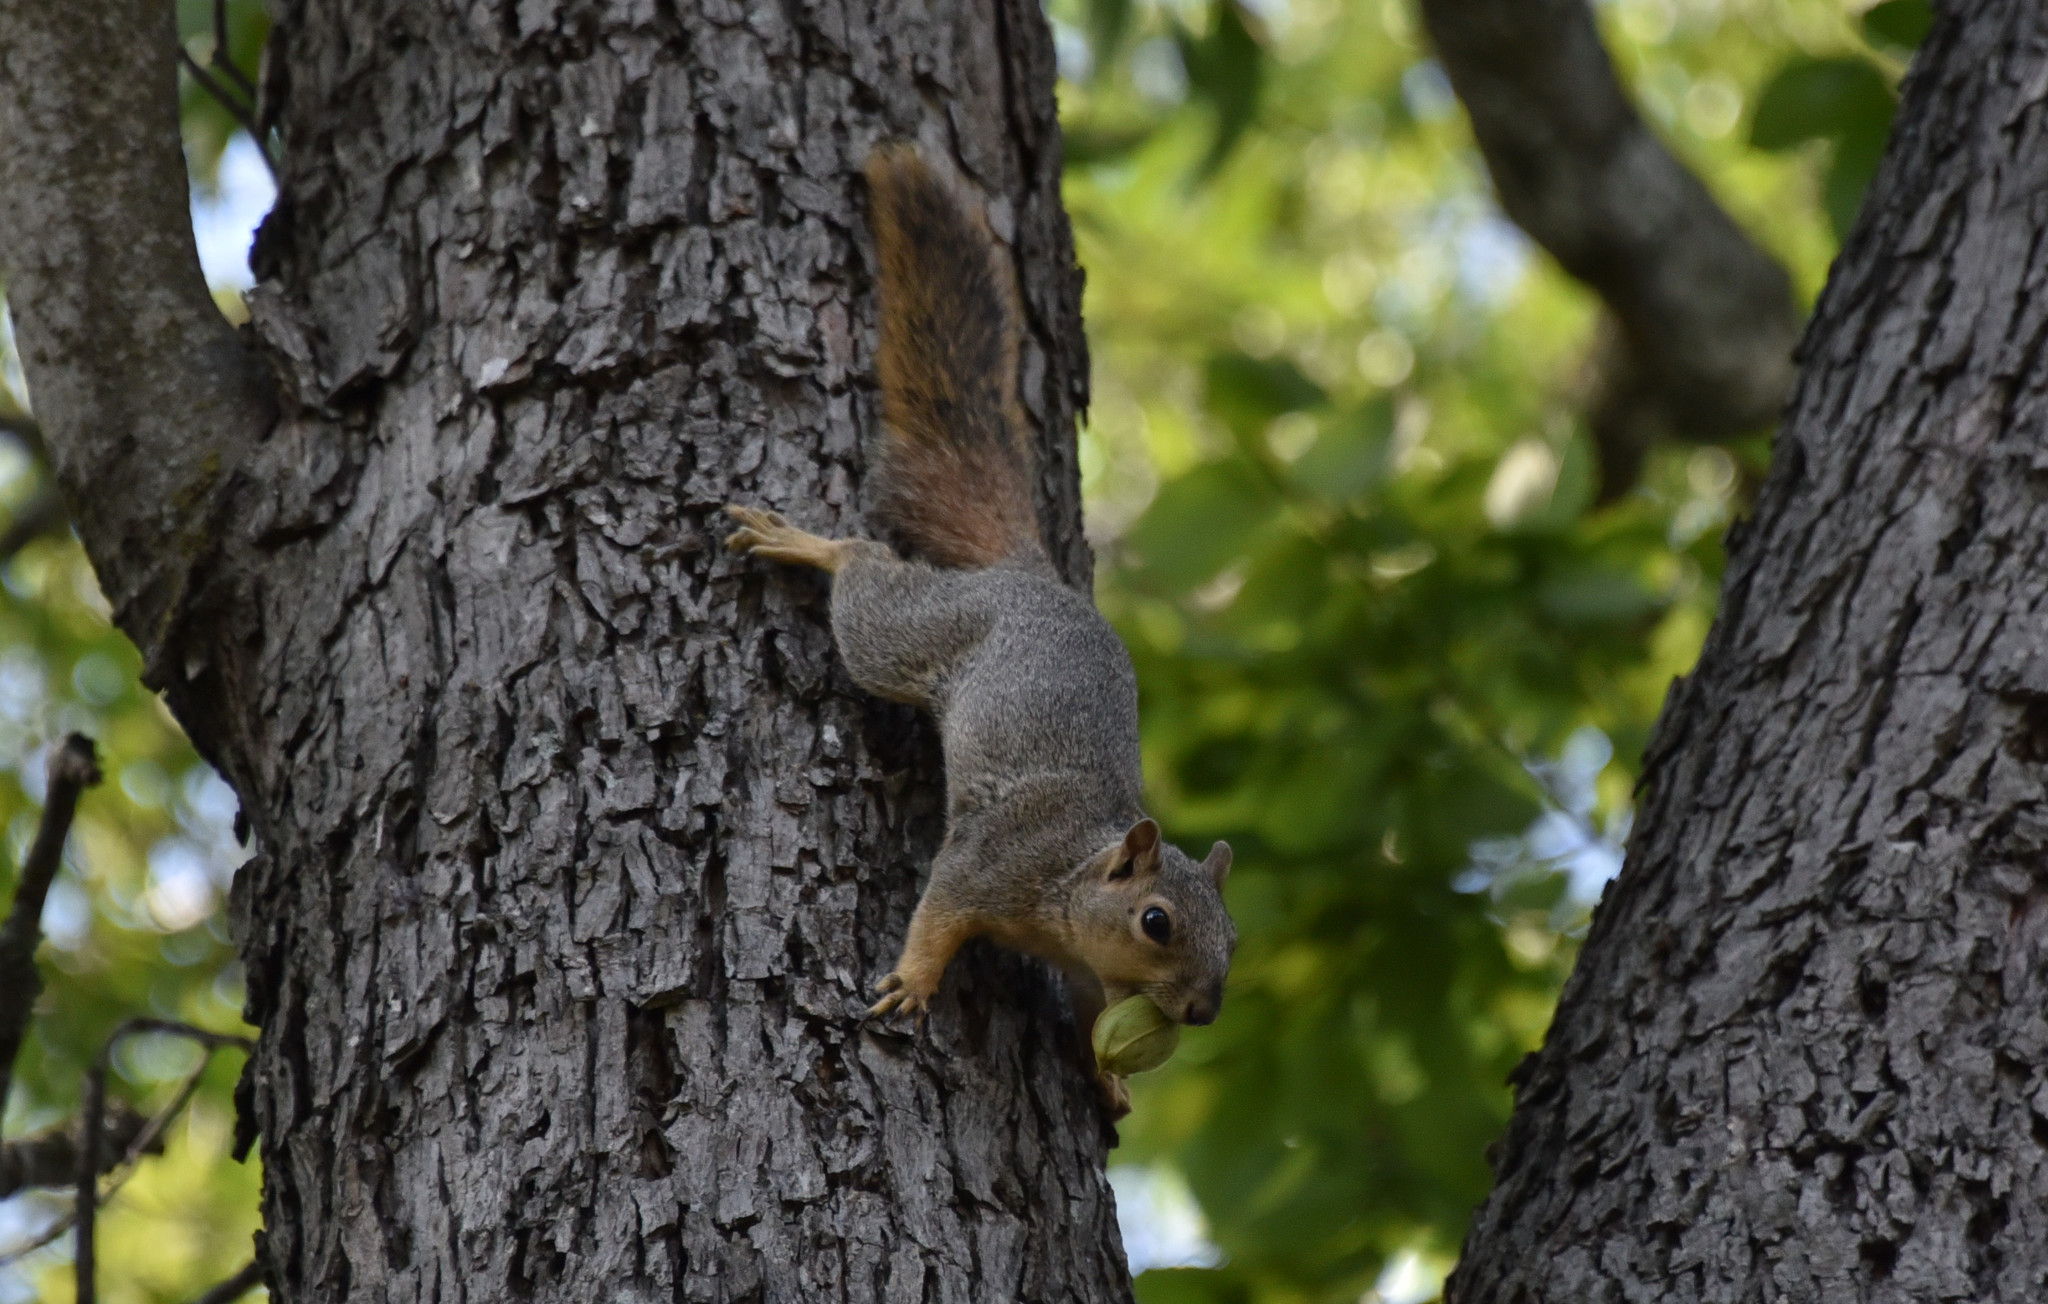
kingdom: Animalia
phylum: Chordata
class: Mammalia
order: Rodentia
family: Sciuridae
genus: Sciurus
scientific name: Sciurus niger
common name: Fox squirrel
